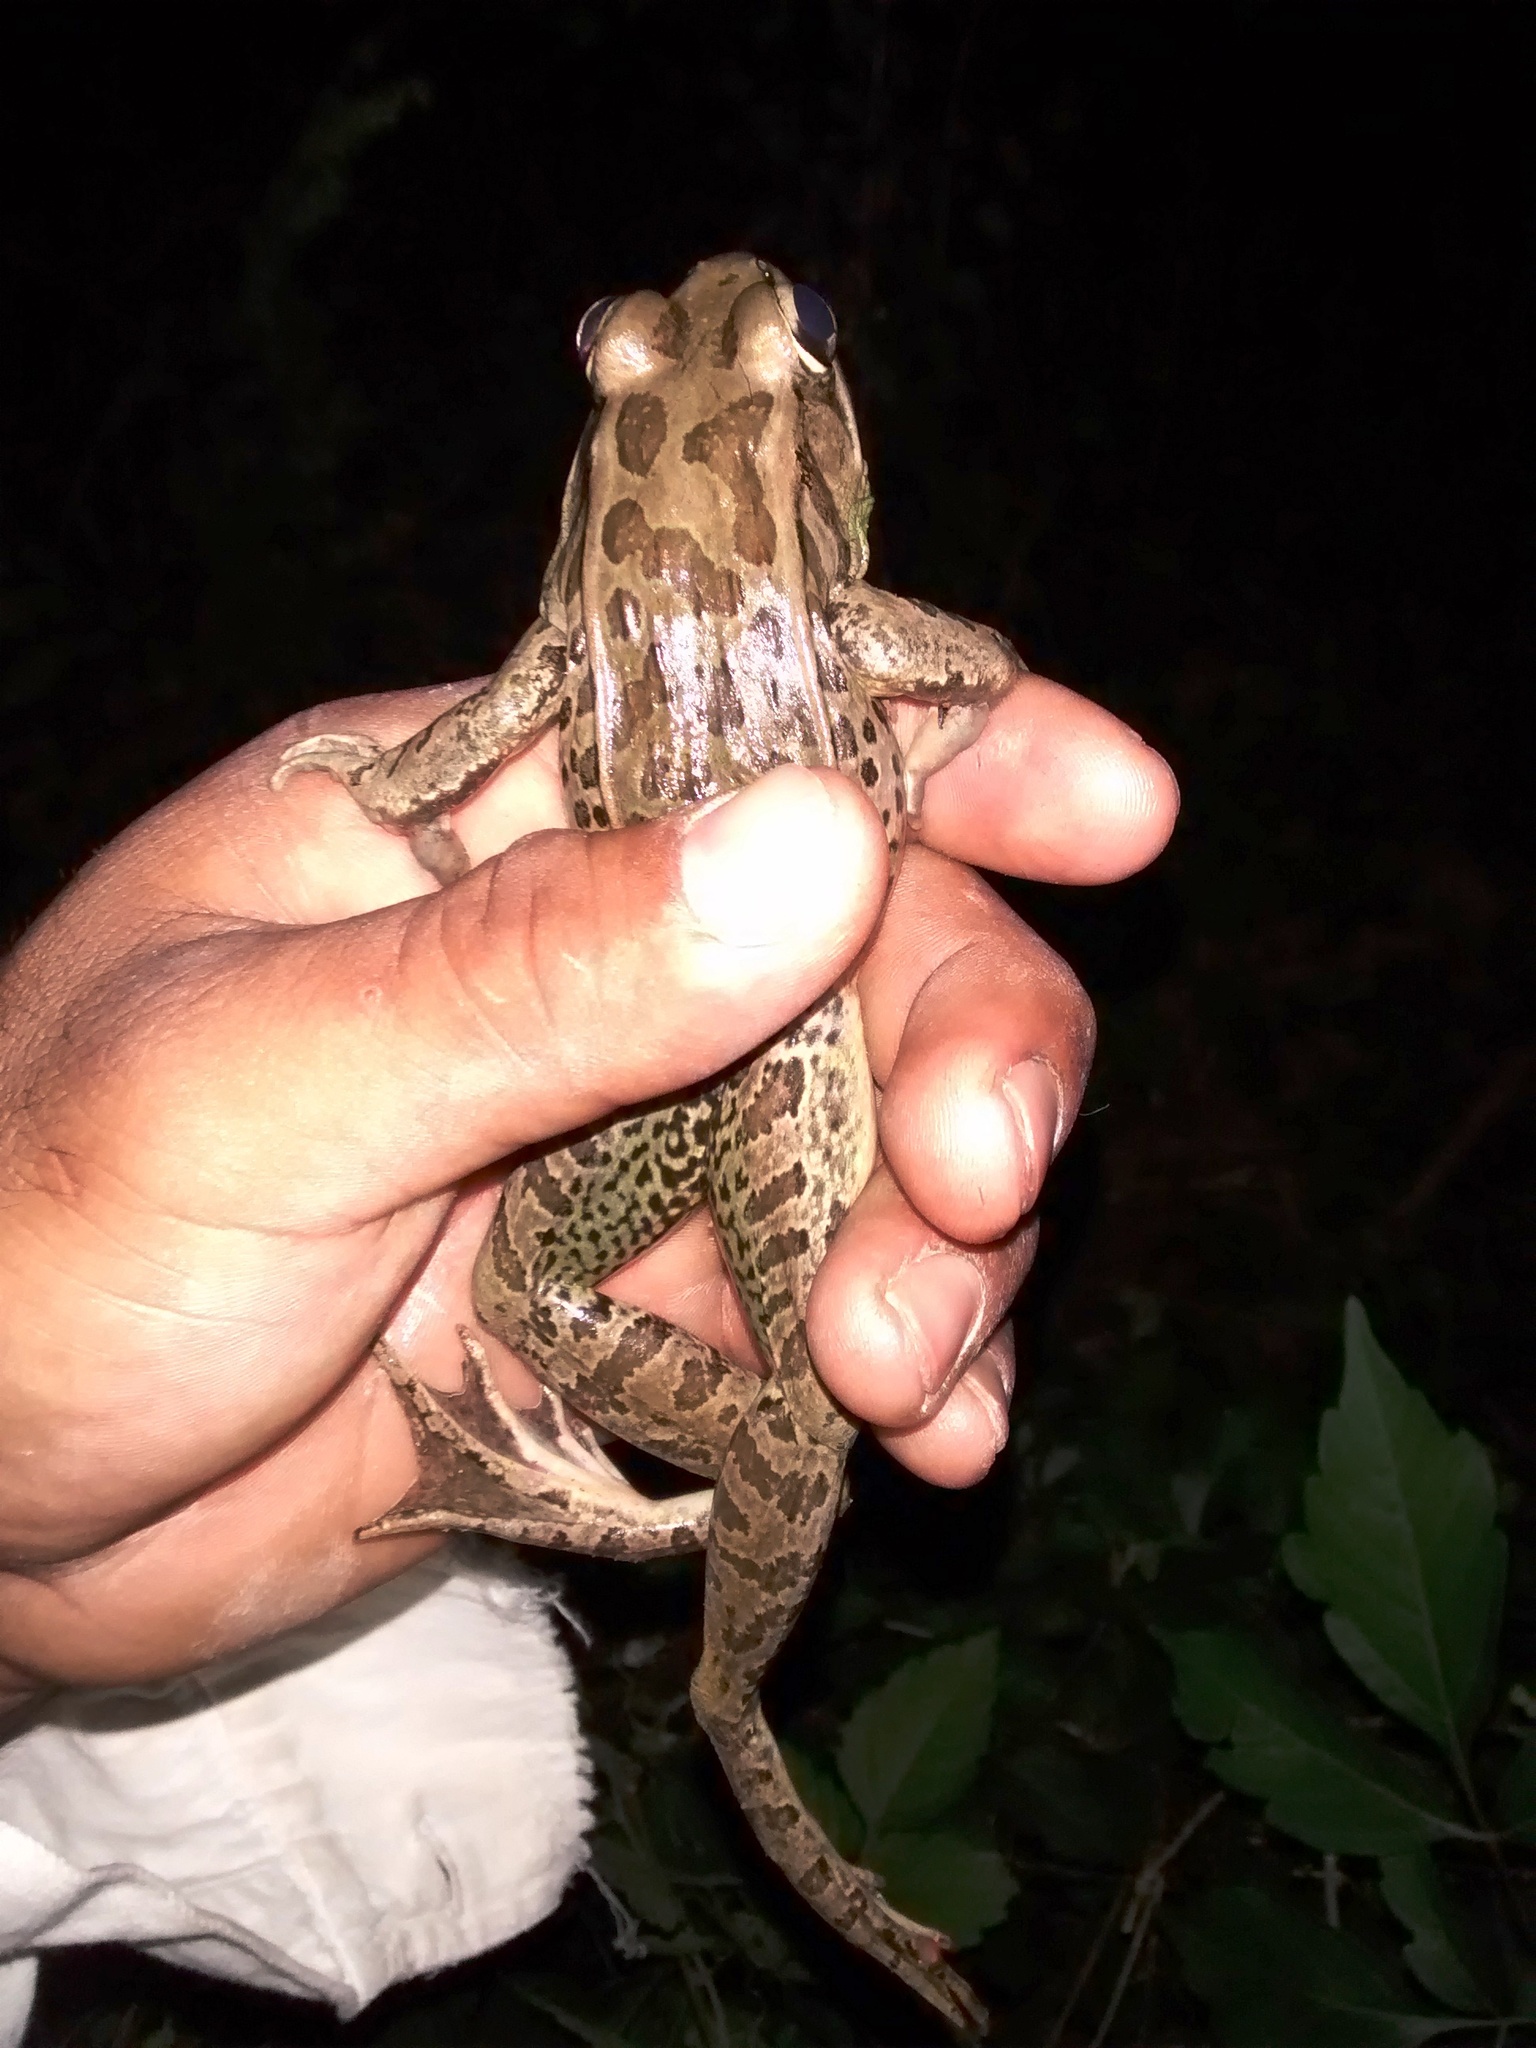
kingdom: Animalia
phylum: Chordata
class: Amphibia
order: Anura
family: Ranidae
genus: Lithobates
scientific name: Lithobates brownorum
